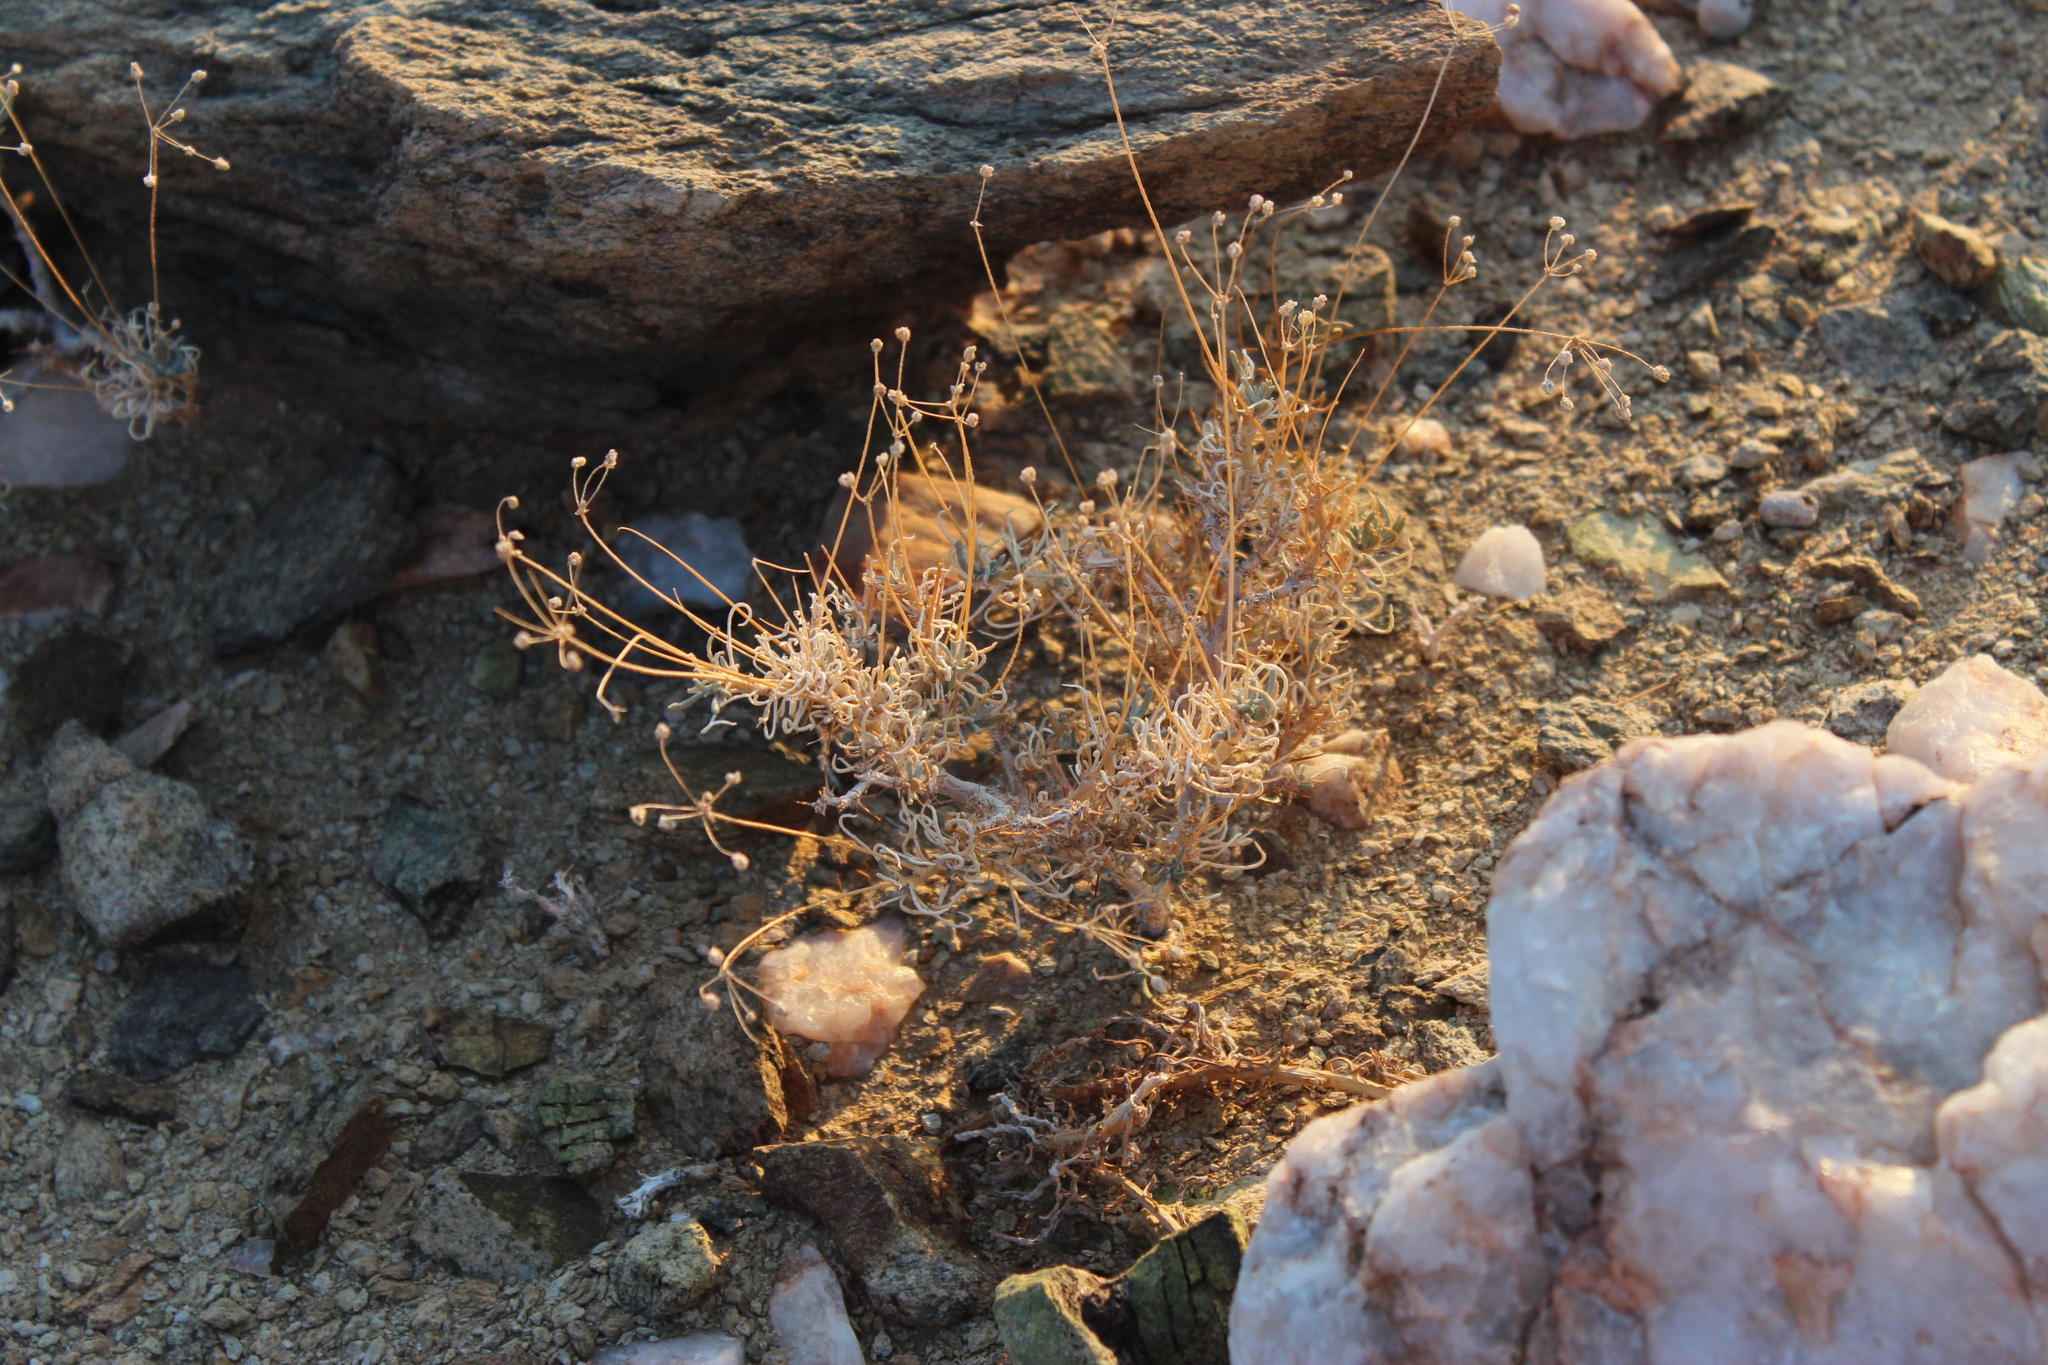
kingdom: Plantae
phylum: Tracheophyta
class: Magnoliopsida
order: Caryophyllales
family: Kewaceae
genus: Kewa
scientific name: Kewa salsoloides
